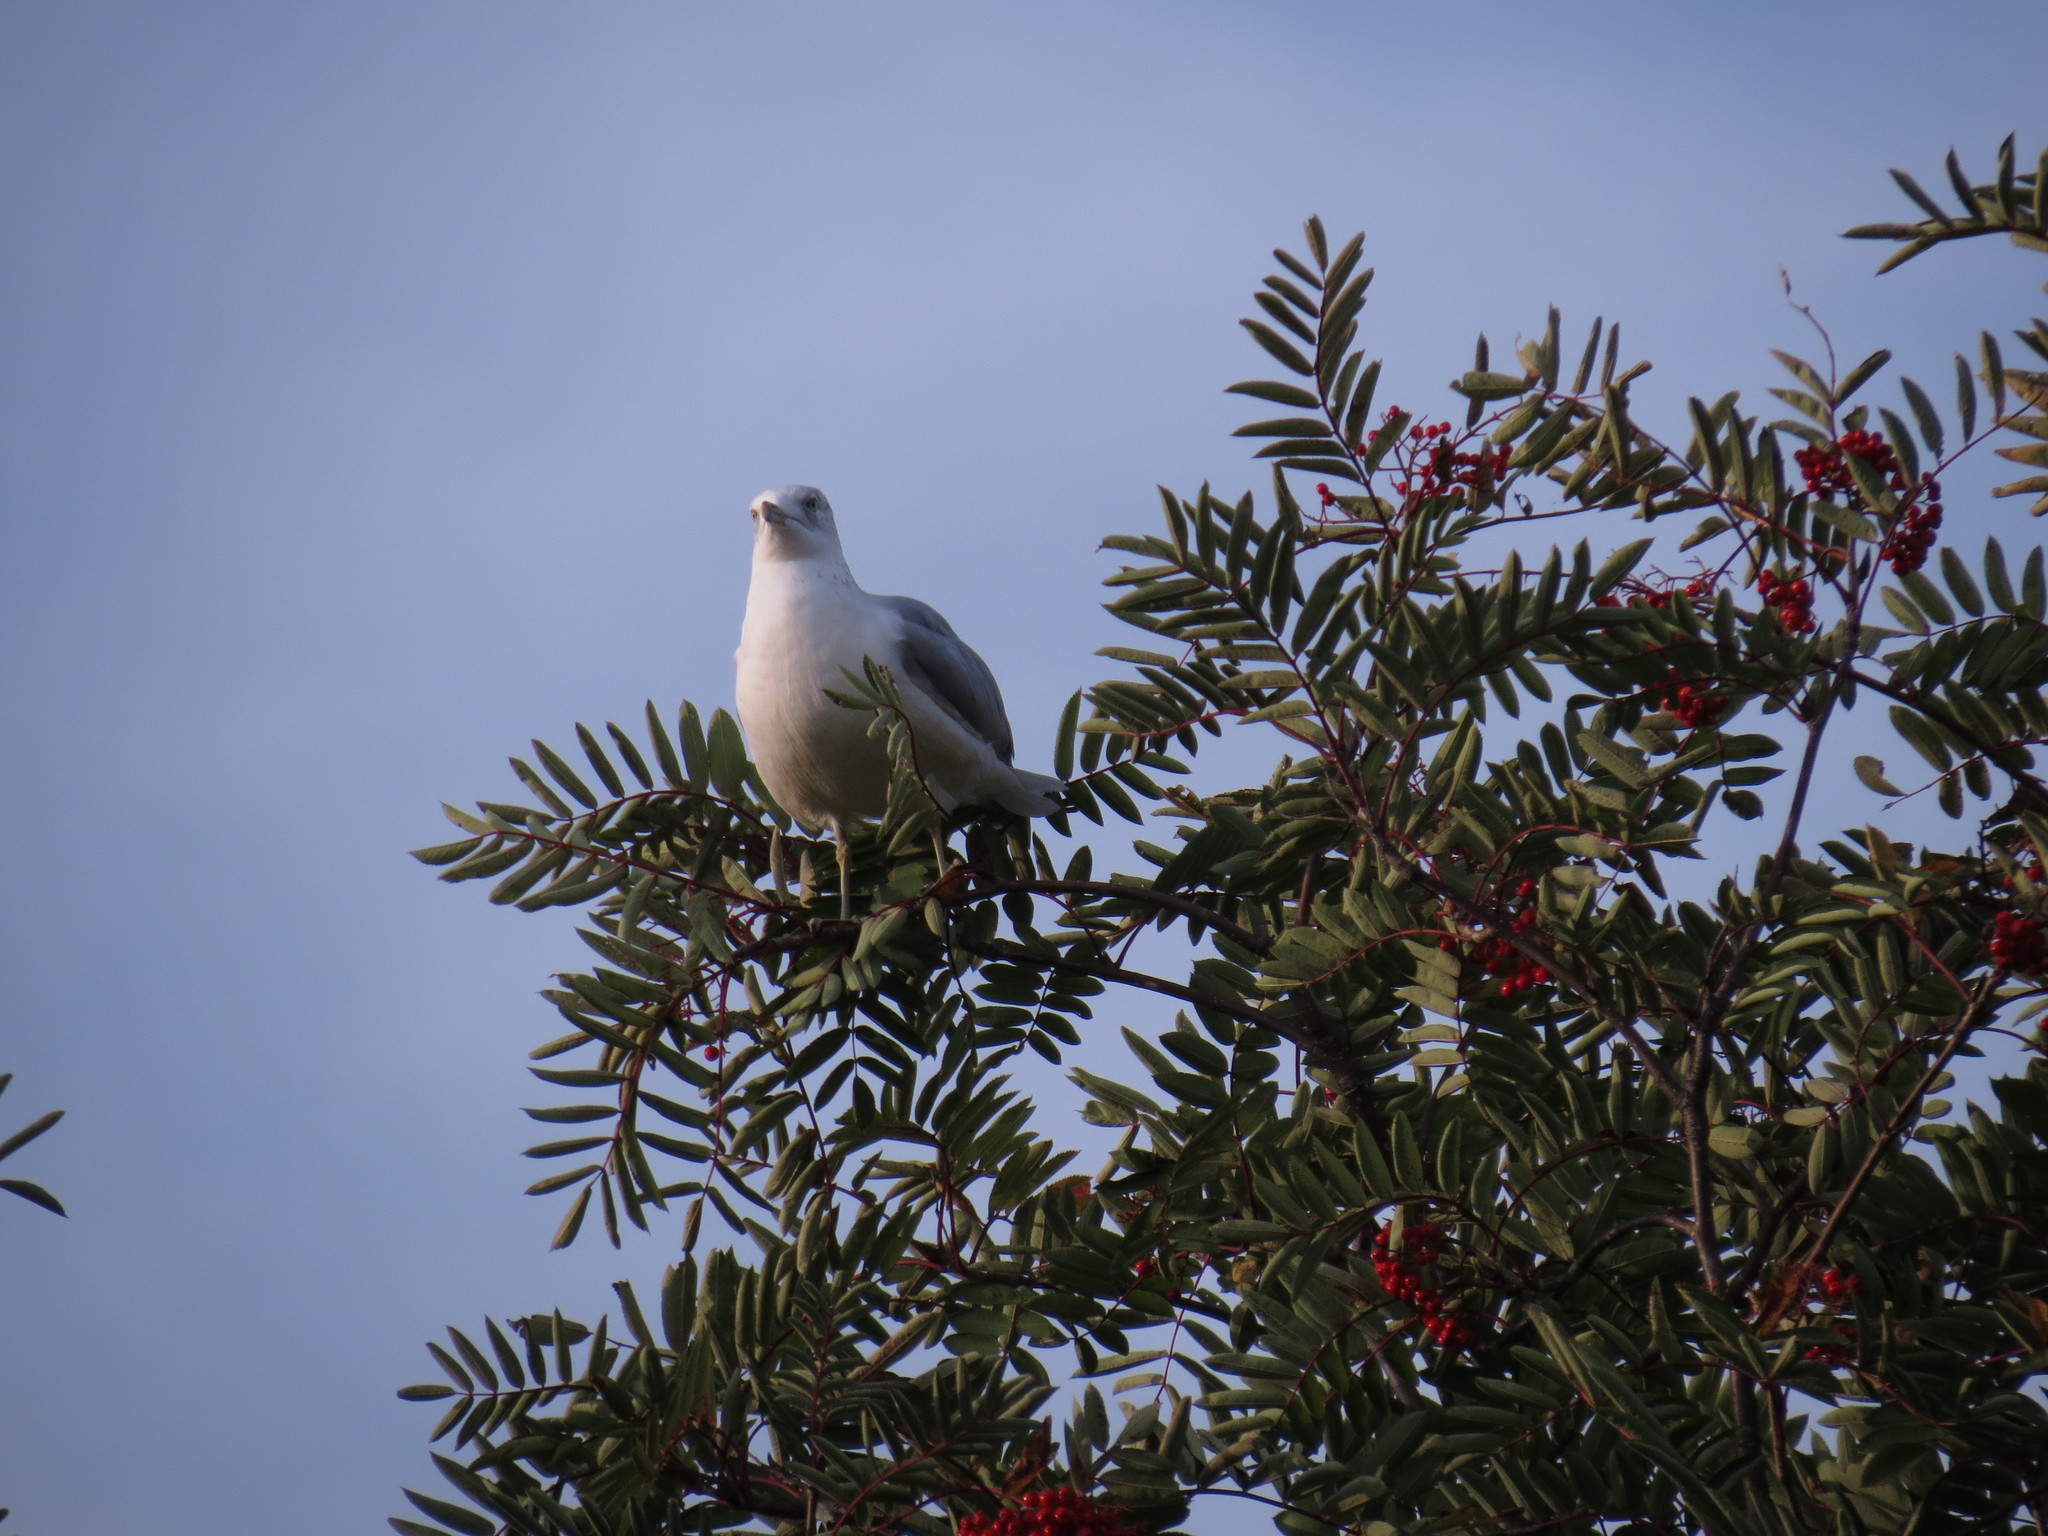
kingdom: Plantae
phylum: Tracheophyta
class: Magnoliopsida
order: Rosales
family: Rosaceae
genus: Sorbus
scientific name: Sorbus americana
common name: American mountain-ash
